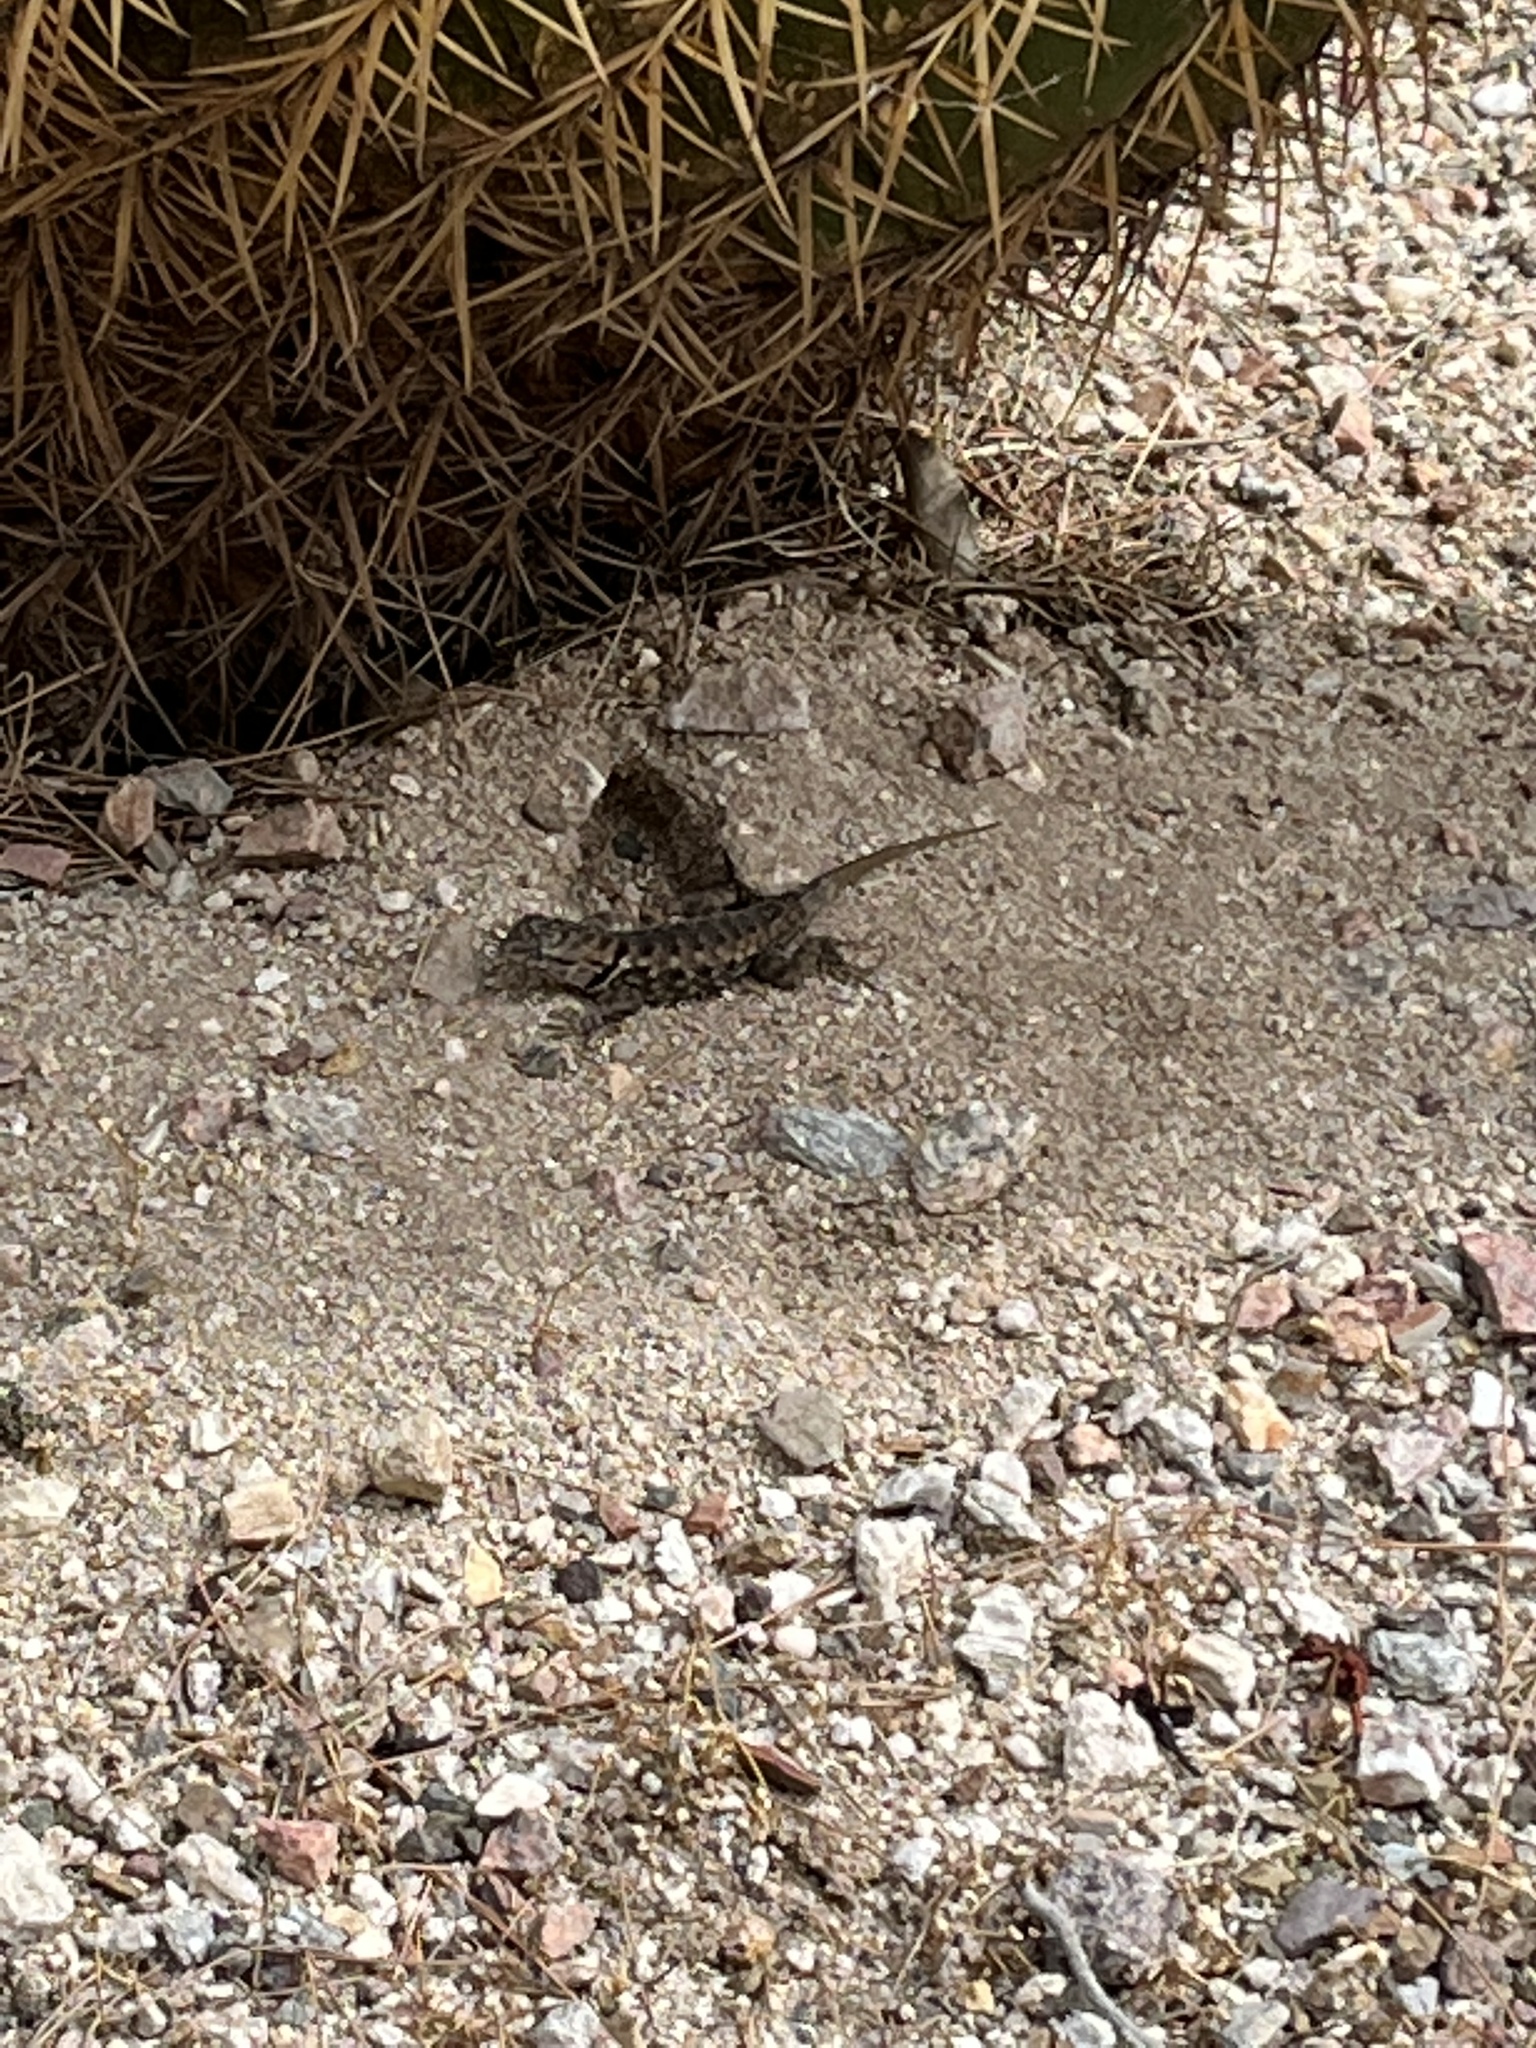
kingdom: Animalia
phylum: Chordata
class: Squamata
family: Phrynosomatidae
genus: Sceloporus
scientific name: Sceloporus magister
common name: Desert spiny lizard
